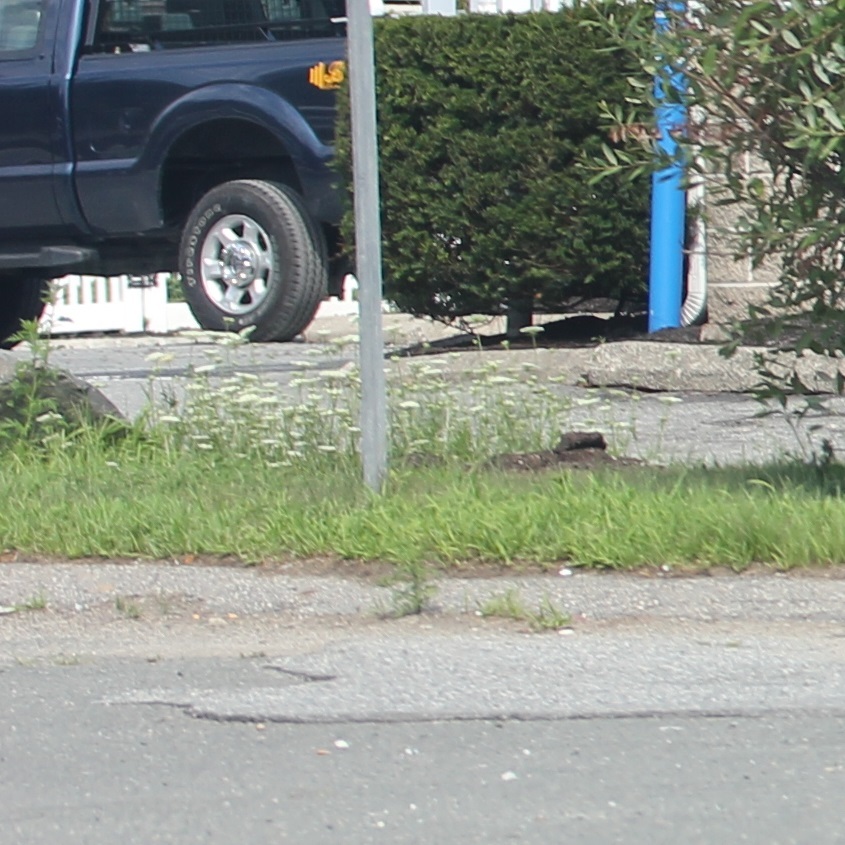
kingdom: Plantae
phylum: Tracheophyta
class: Magnoliopsida
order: Apiales
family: Apiaceae
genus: Daucus
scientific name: Daucus carota
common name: Wild carrot
